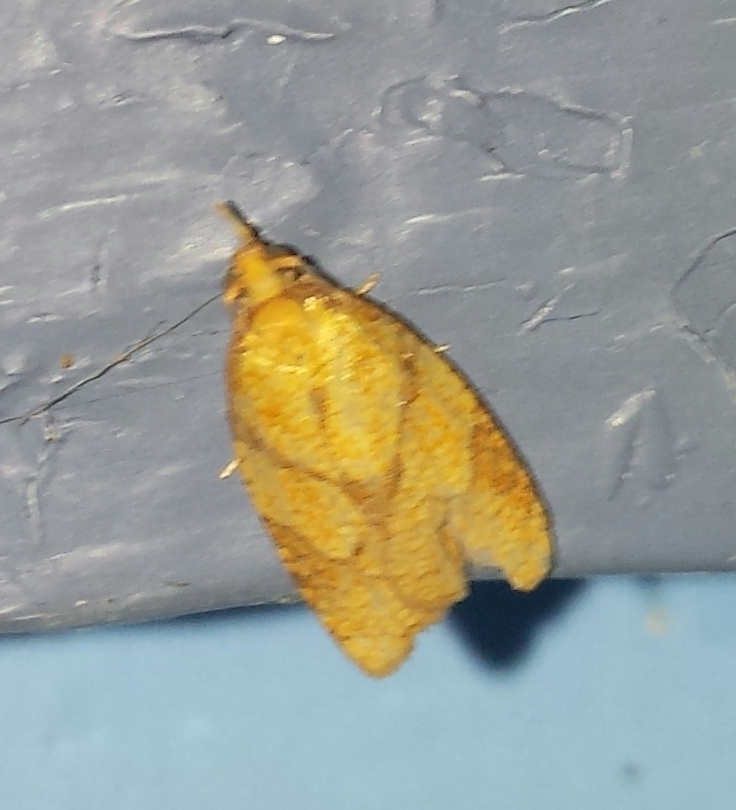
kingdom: Animalia
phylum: Arthropoda
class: Insecta
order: Lepidoptera
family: Tortricidae
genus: Cenopis
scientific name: Cenopis reticulatana
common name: Reticulated fruitworm moth
